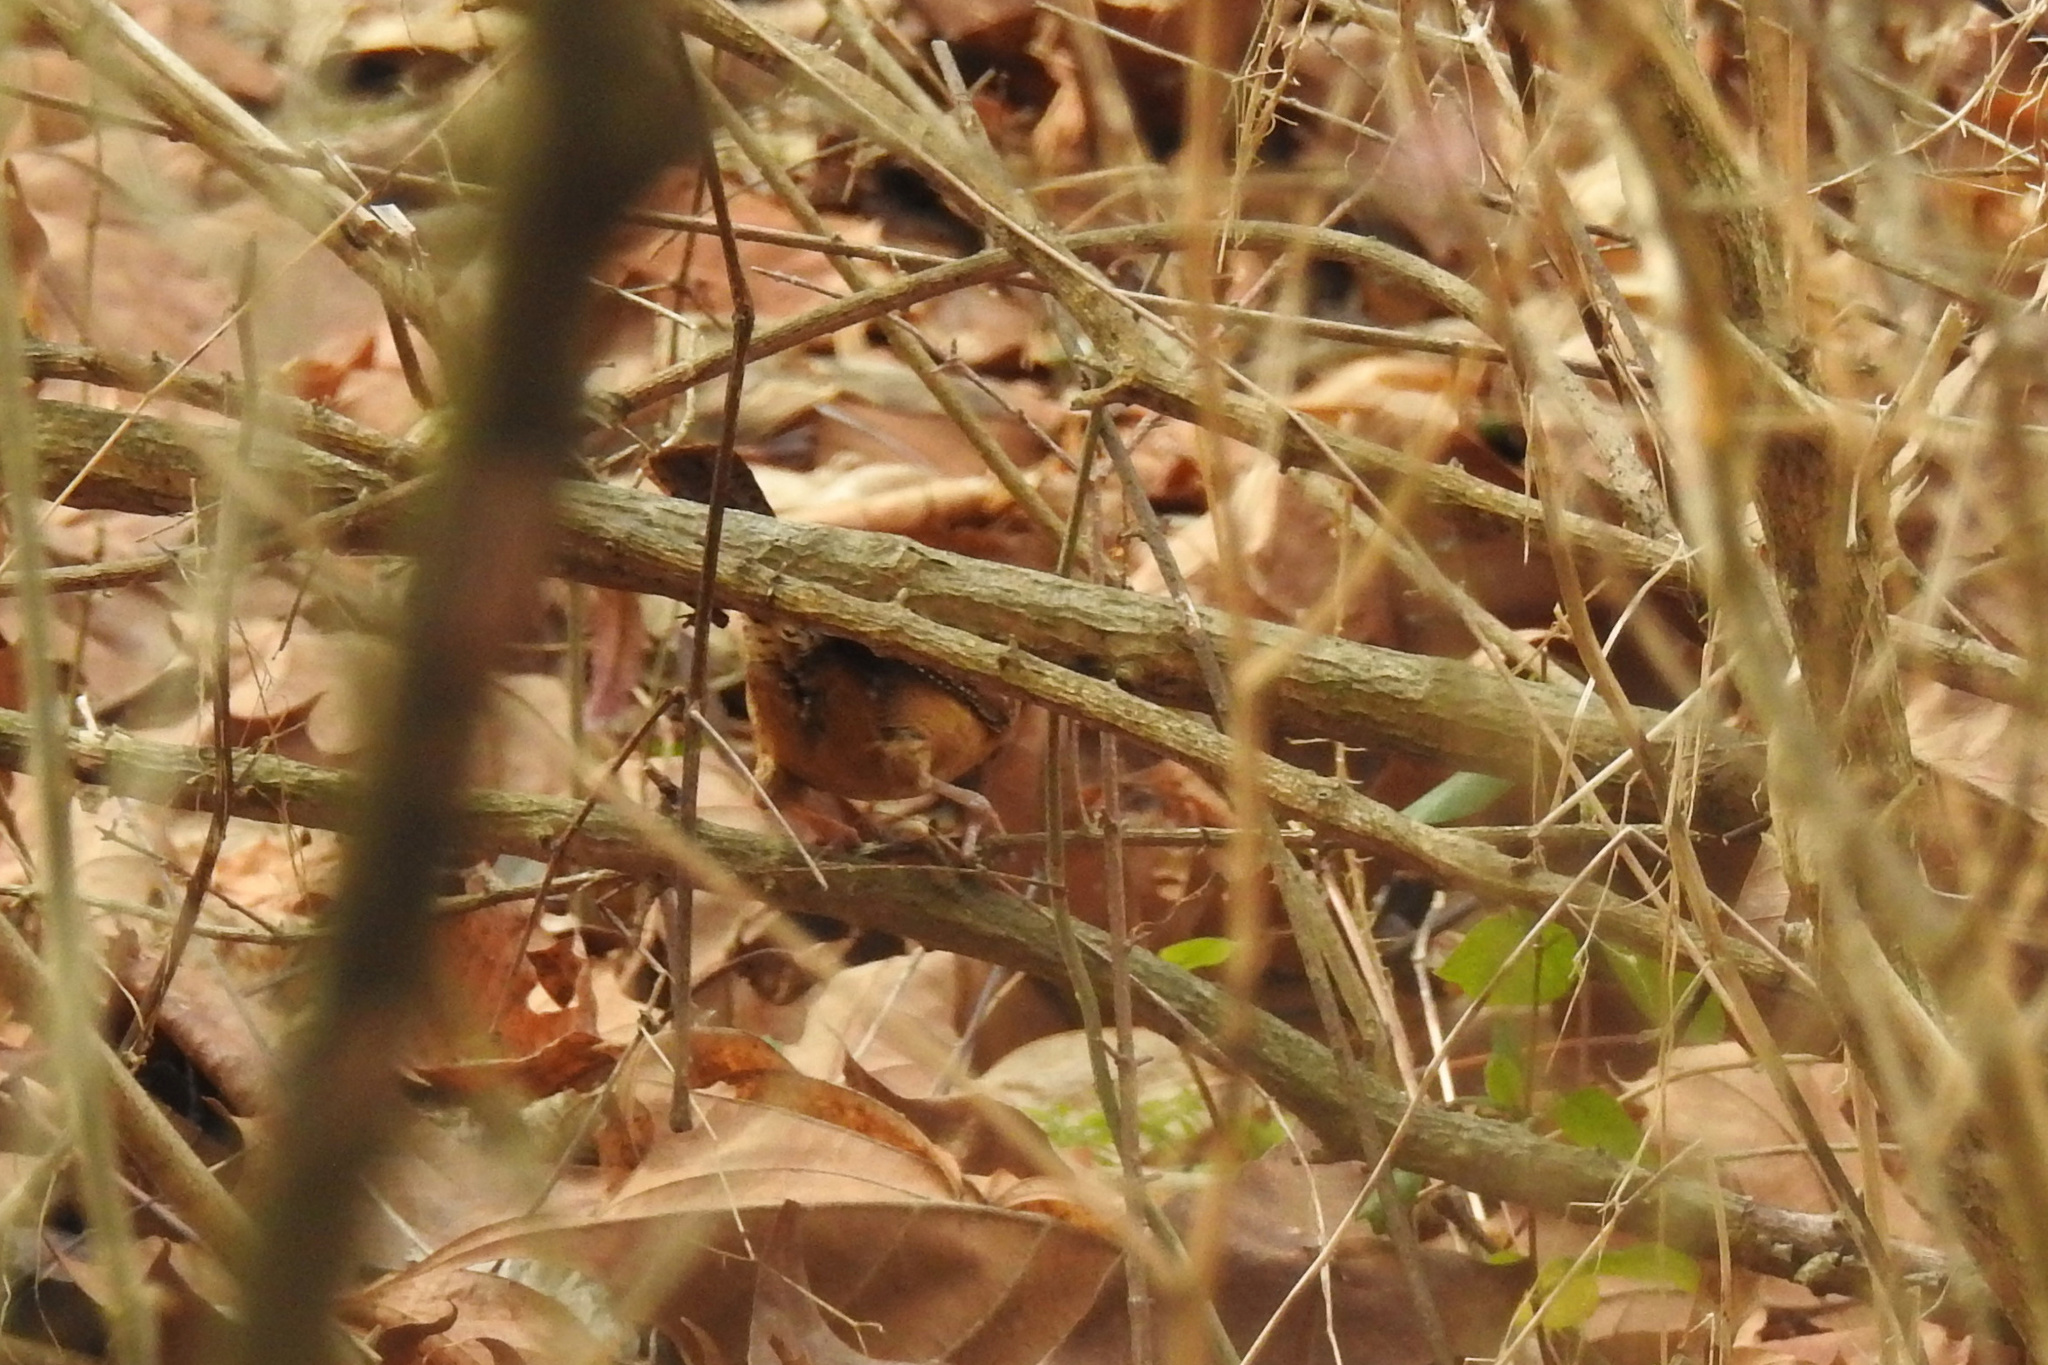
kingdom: Animalia
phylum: Chordata
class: Aves
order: Passeriformes
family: Troglodytidae
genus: Thryothorus
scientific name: Thryothorus ludovicianus
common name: Carolina wren
